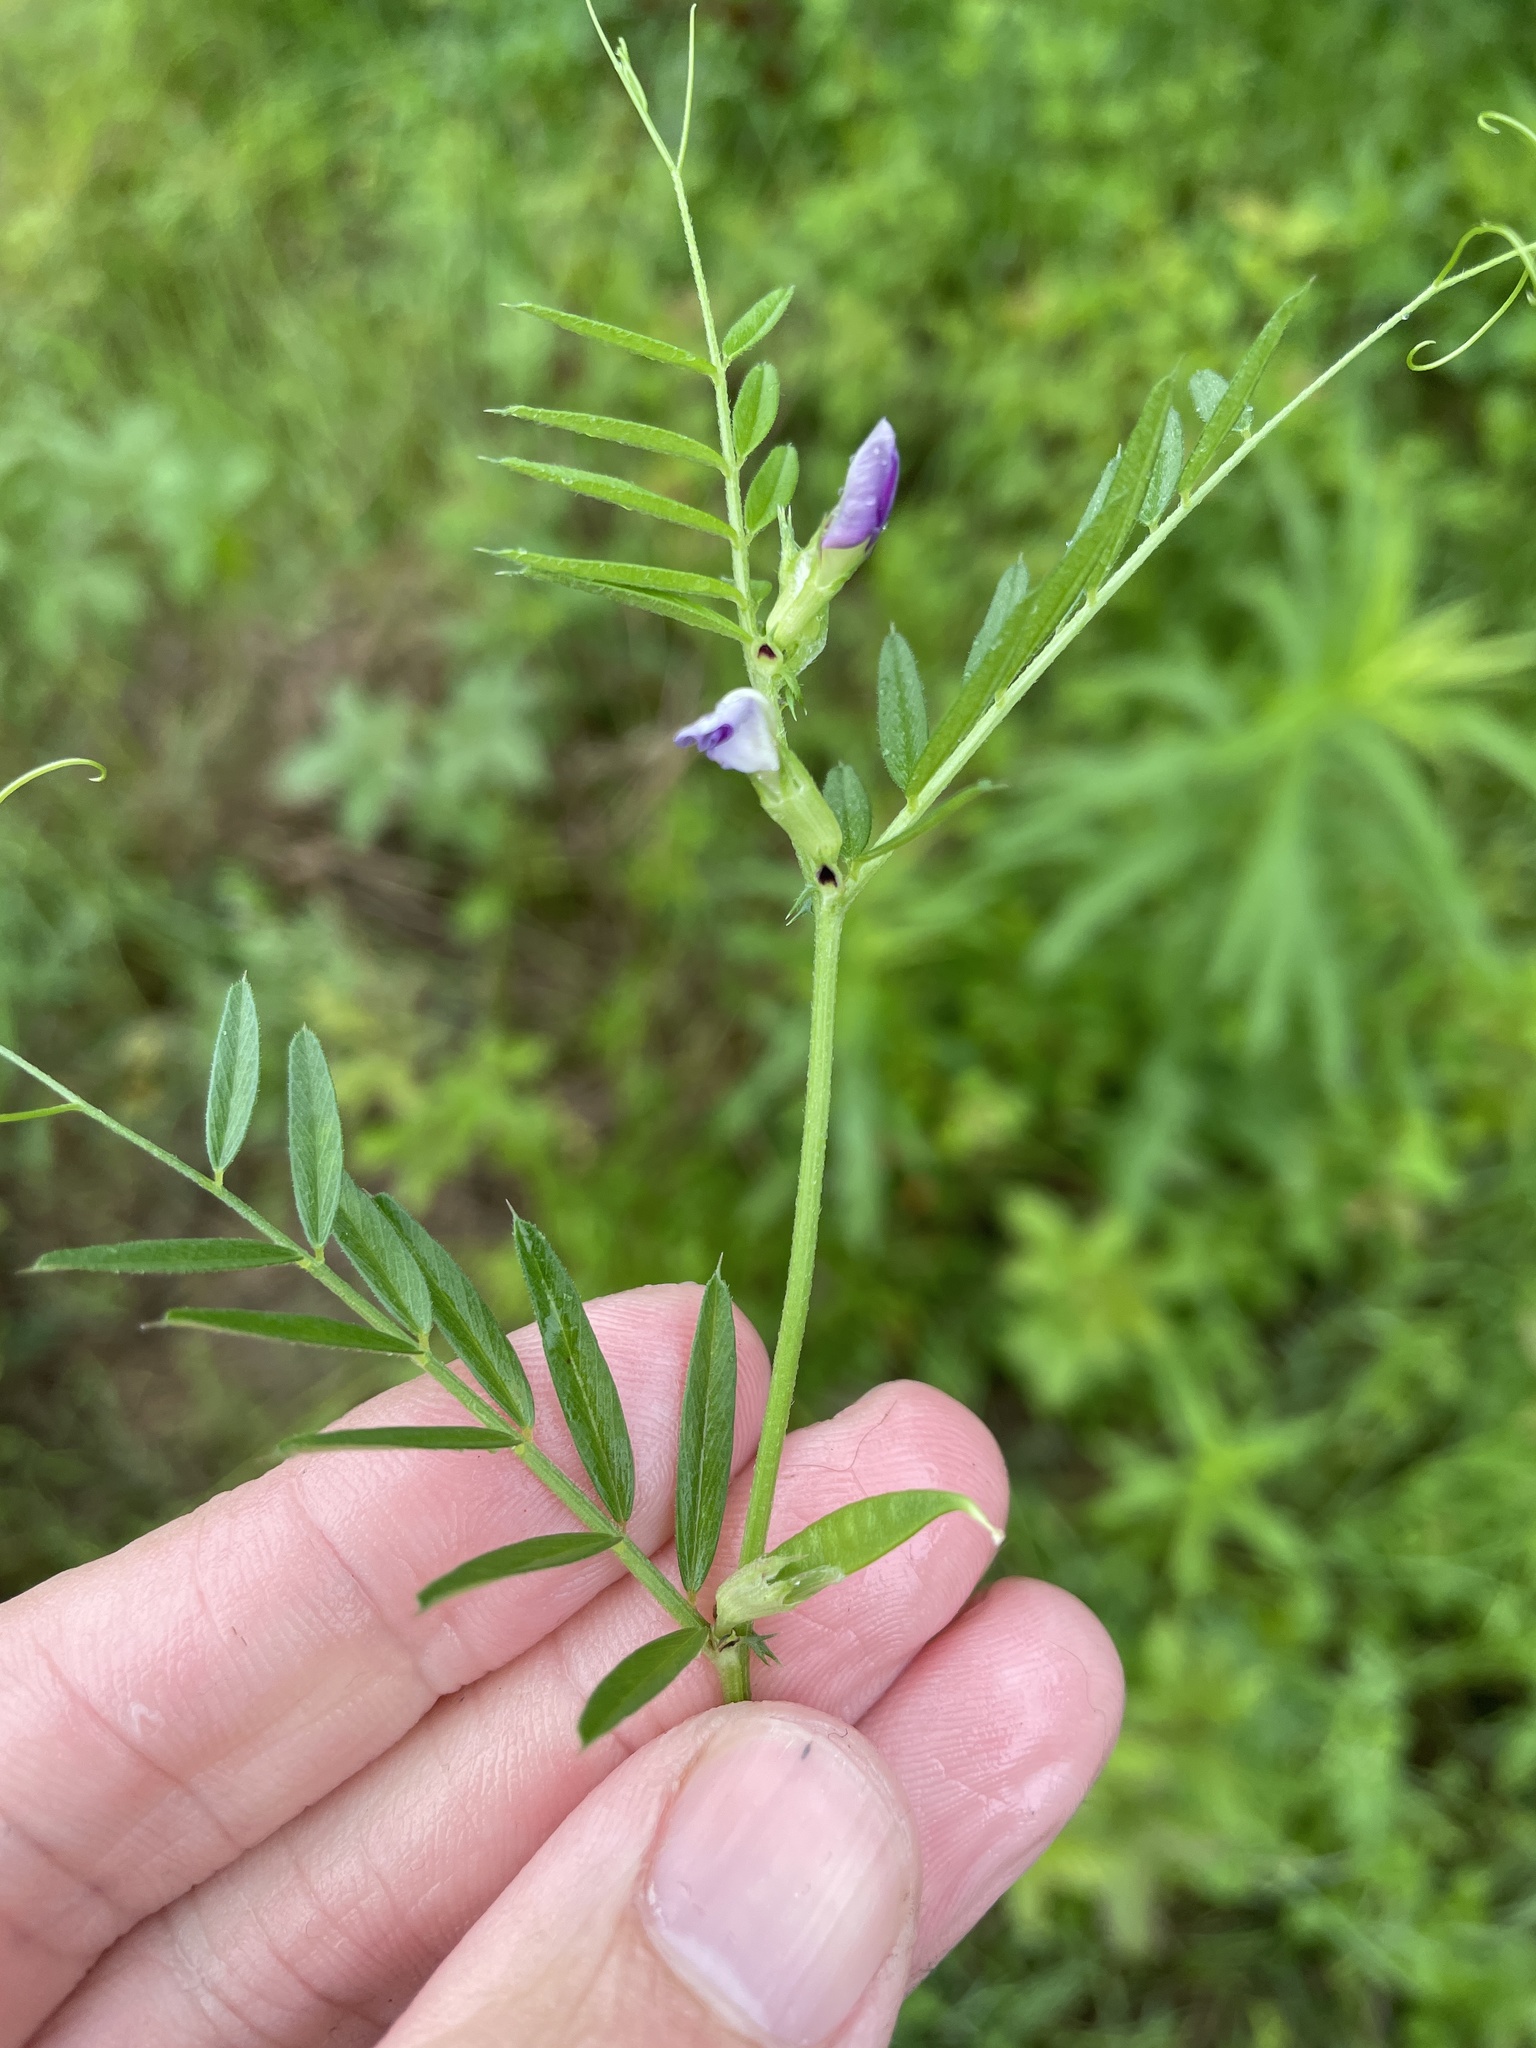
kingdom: Plantae
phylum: Tracheophyta
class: Magnoliopsida
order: Fabales
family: Fabaceae
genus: Vicia
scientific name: Vicia sativa
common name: Garden vetch
